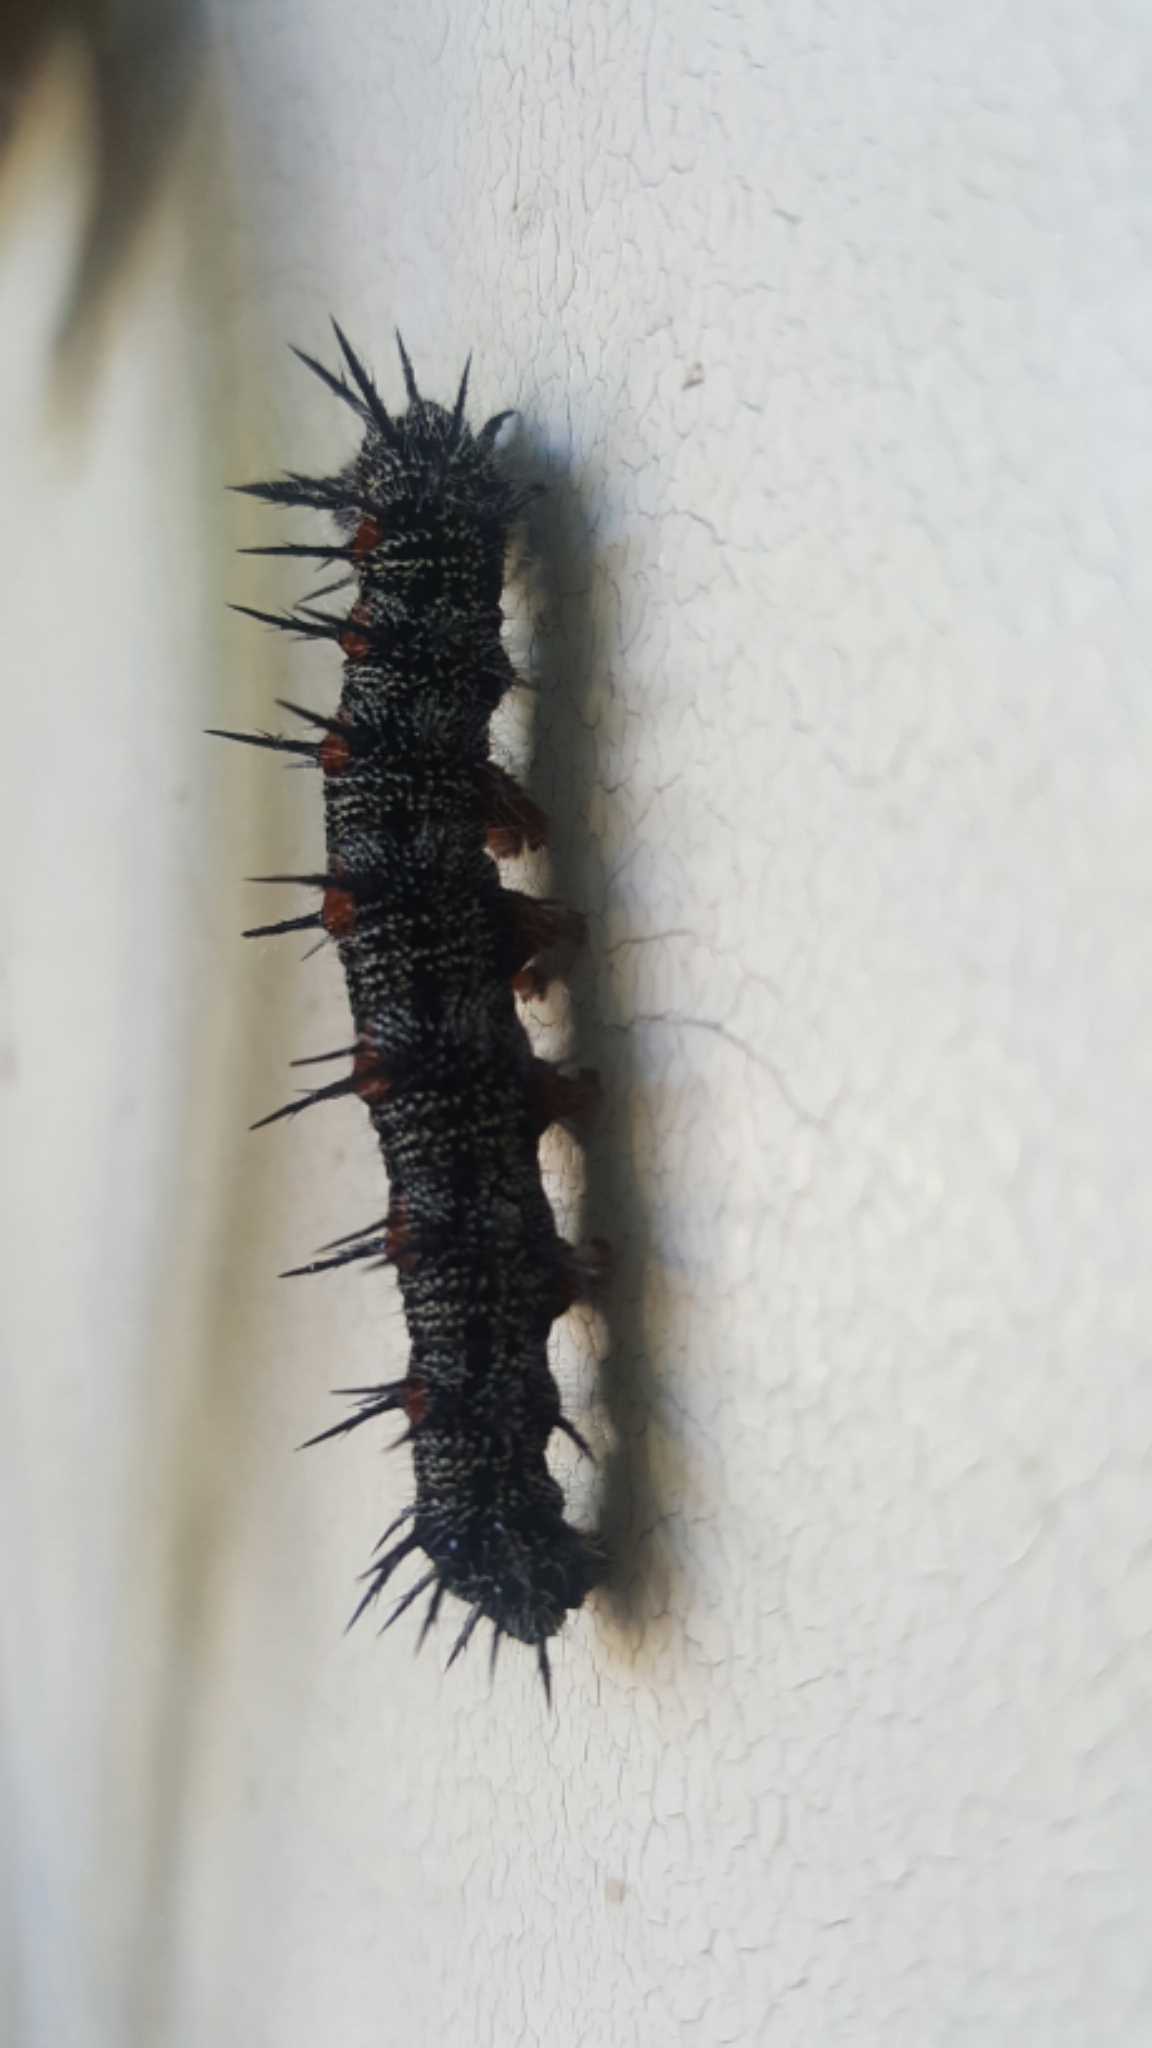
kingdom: Animalia
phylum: Arthropoda
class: Insecta
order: Lepidoptera
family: Nymphalidae
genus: Nymphalis
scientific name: Nymphalis antiopa
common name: Camberwell beauty
